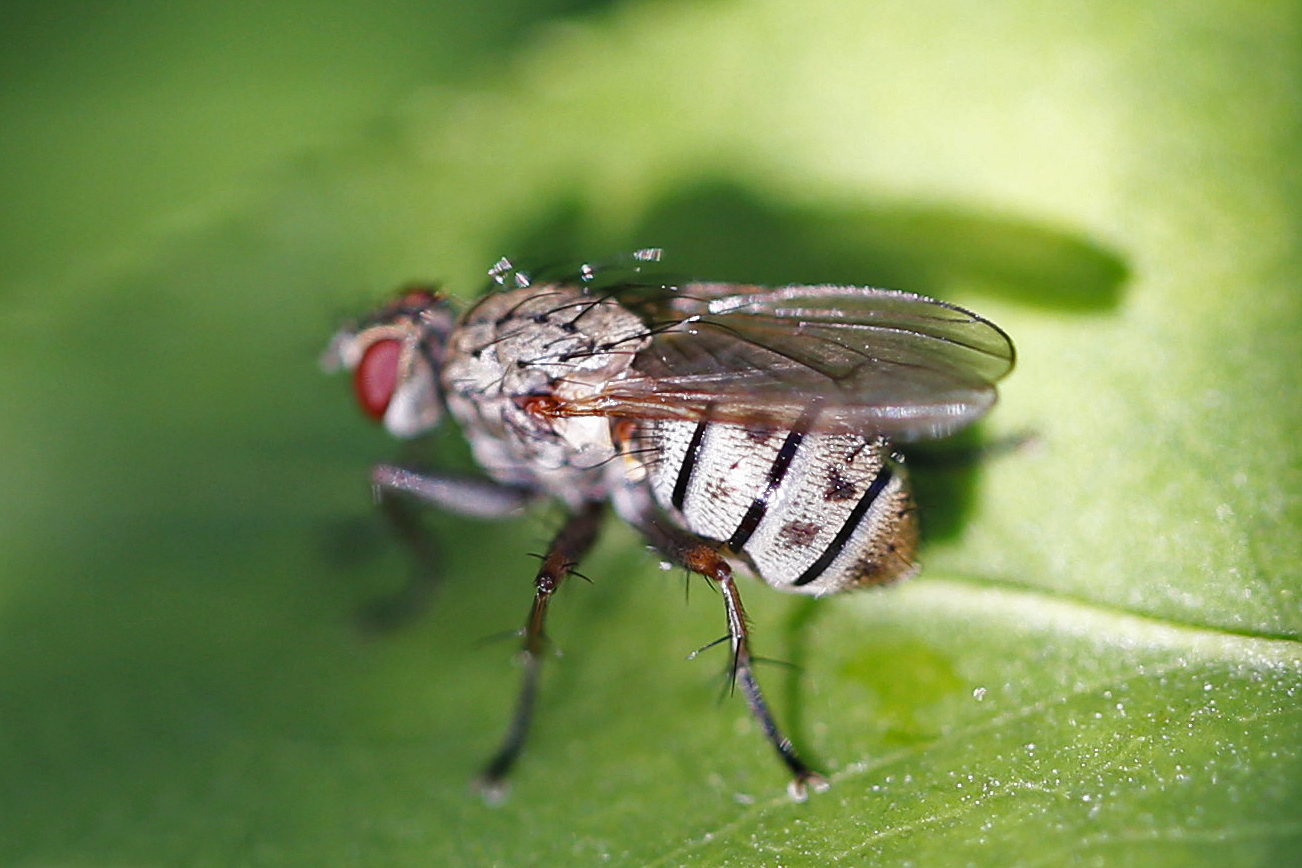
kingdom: Animalia
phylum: Arthropoda
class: Insecta
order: Diptera
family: Muscidae
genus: Coenosia
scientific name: Coenosia tigrina
